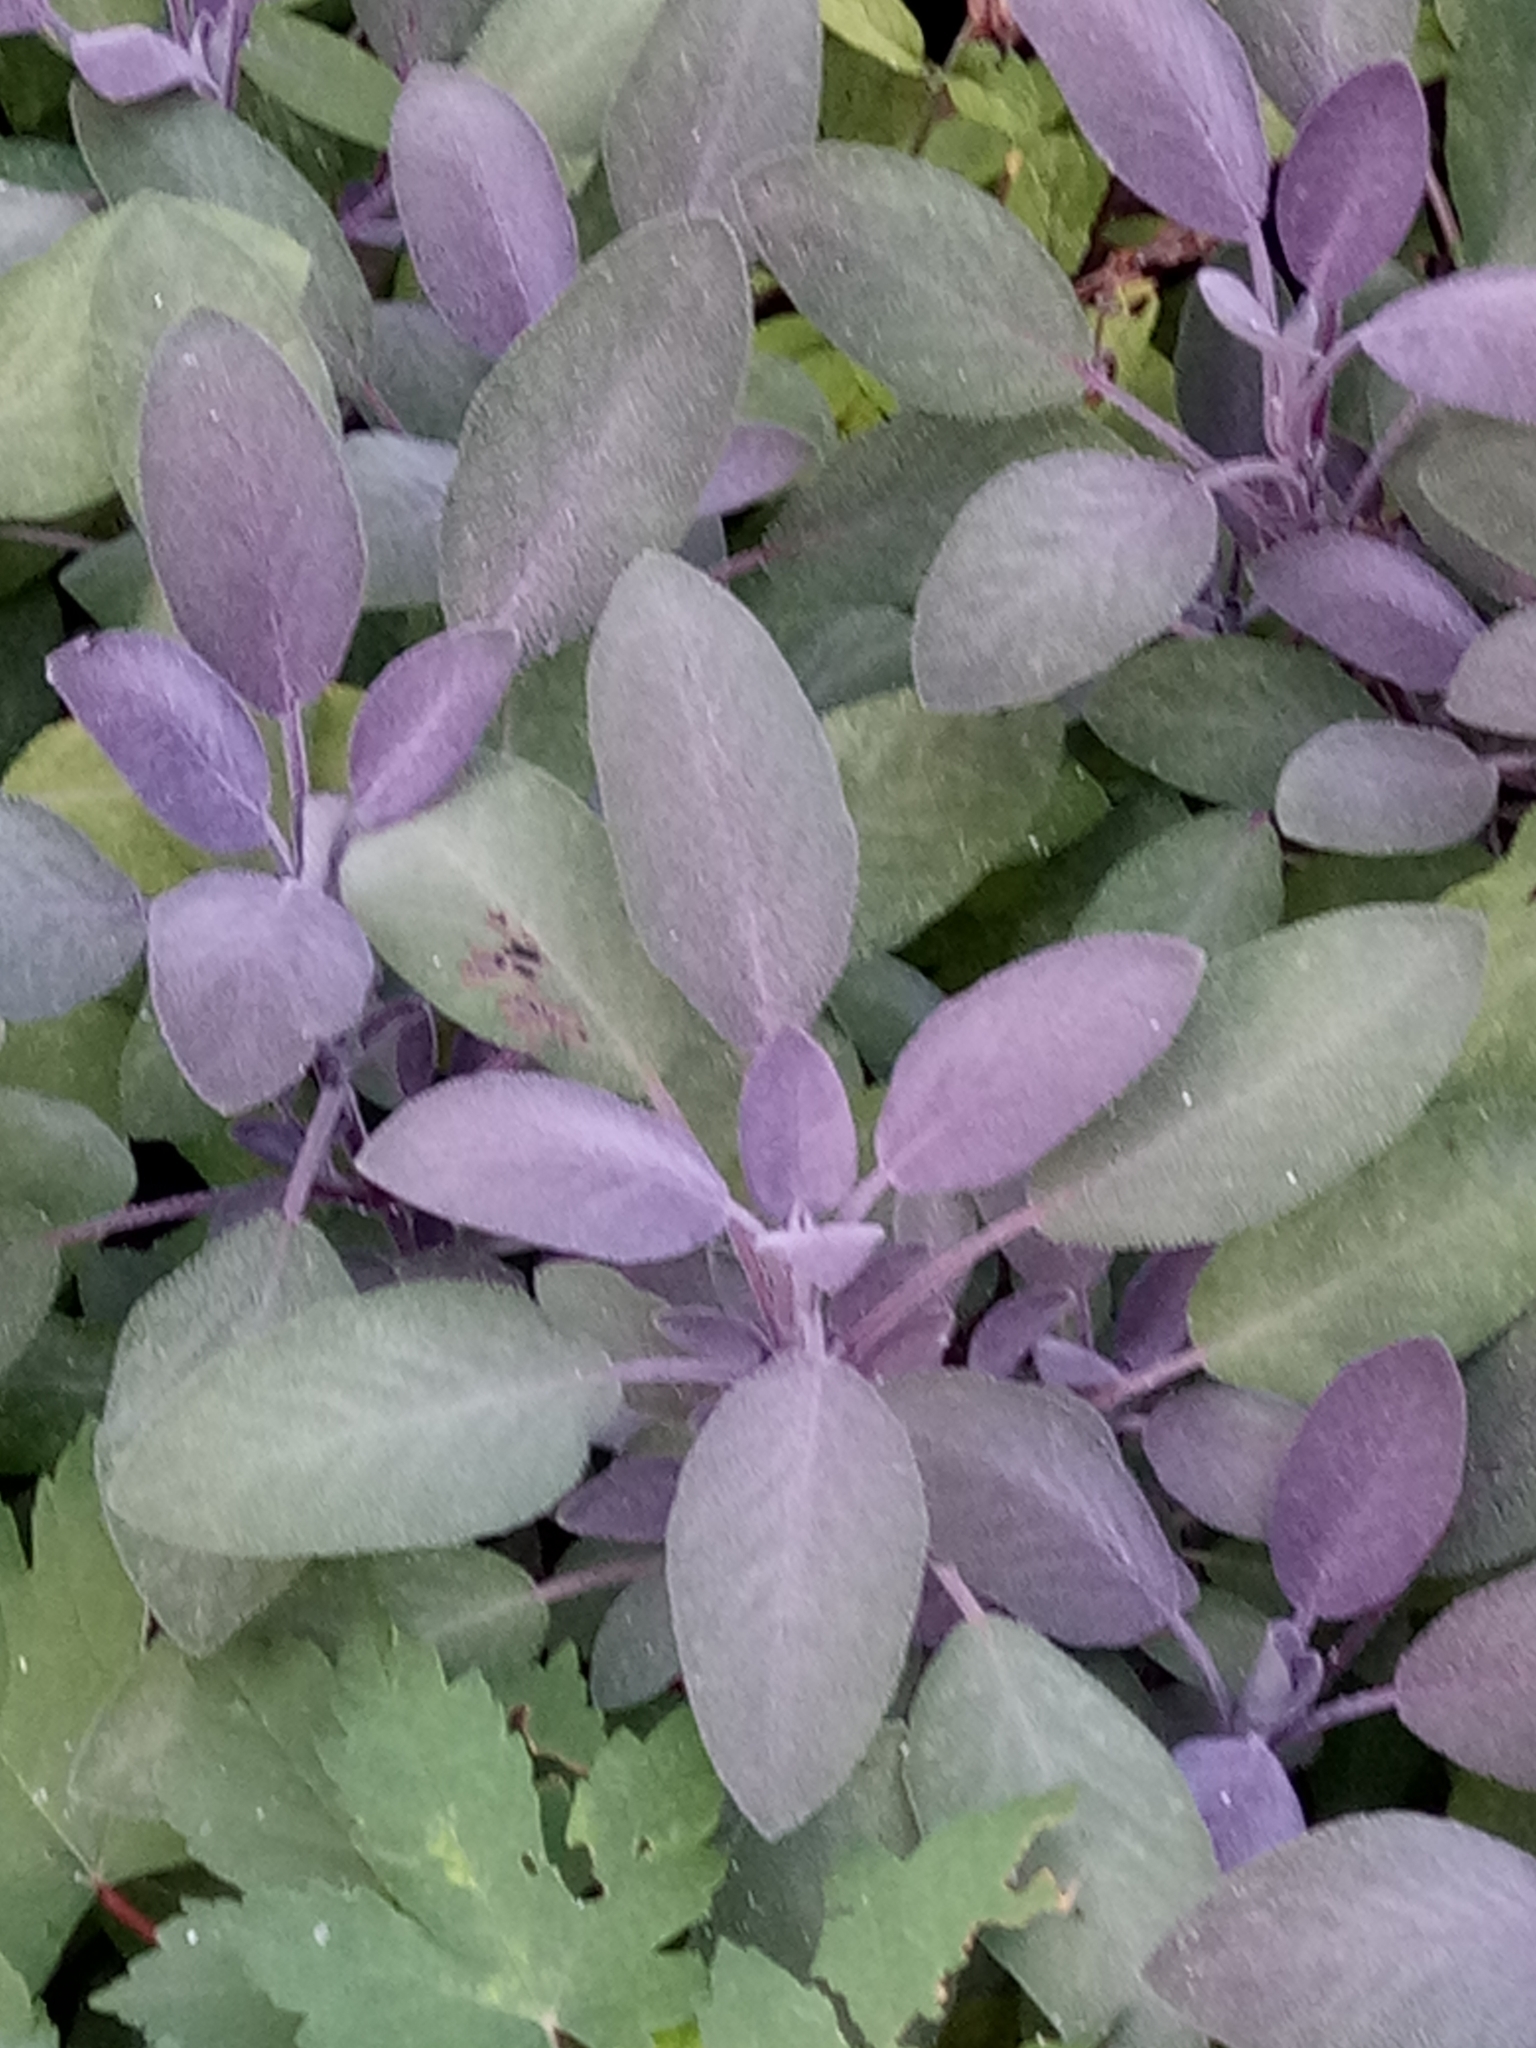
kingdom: Plantae
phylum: Tracheophyta
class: Magnoliopsida
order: Lamiales
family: Lamiaceae
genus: Salvia
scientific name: Salvia officinalis
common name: Sage
